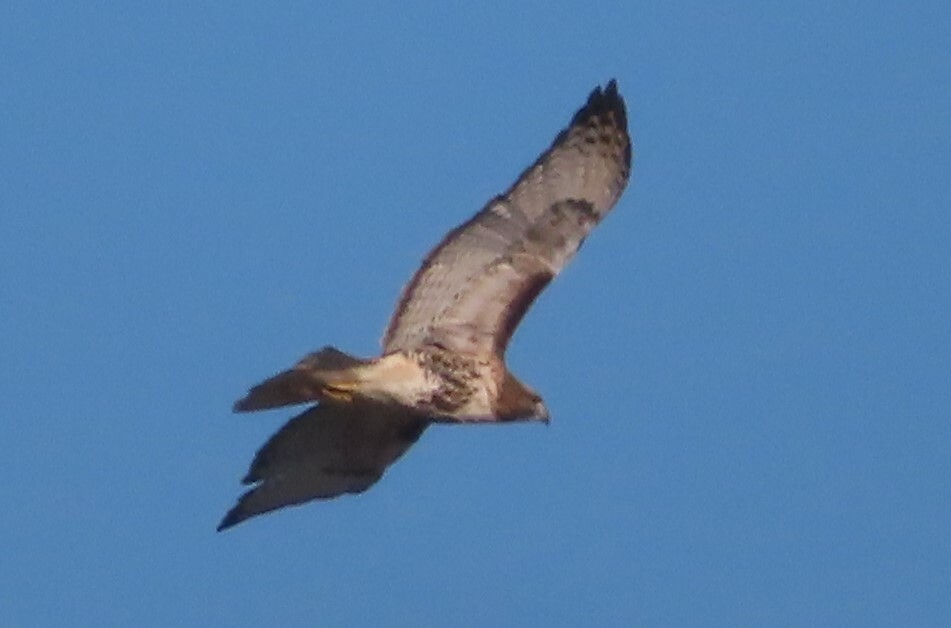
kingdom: Animalia
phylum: Chordata
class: Aves
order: Accipitriformes
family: Accipitridae
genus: Buteo
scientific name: Buteo jamaicensis
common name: Red-tailed hawk
